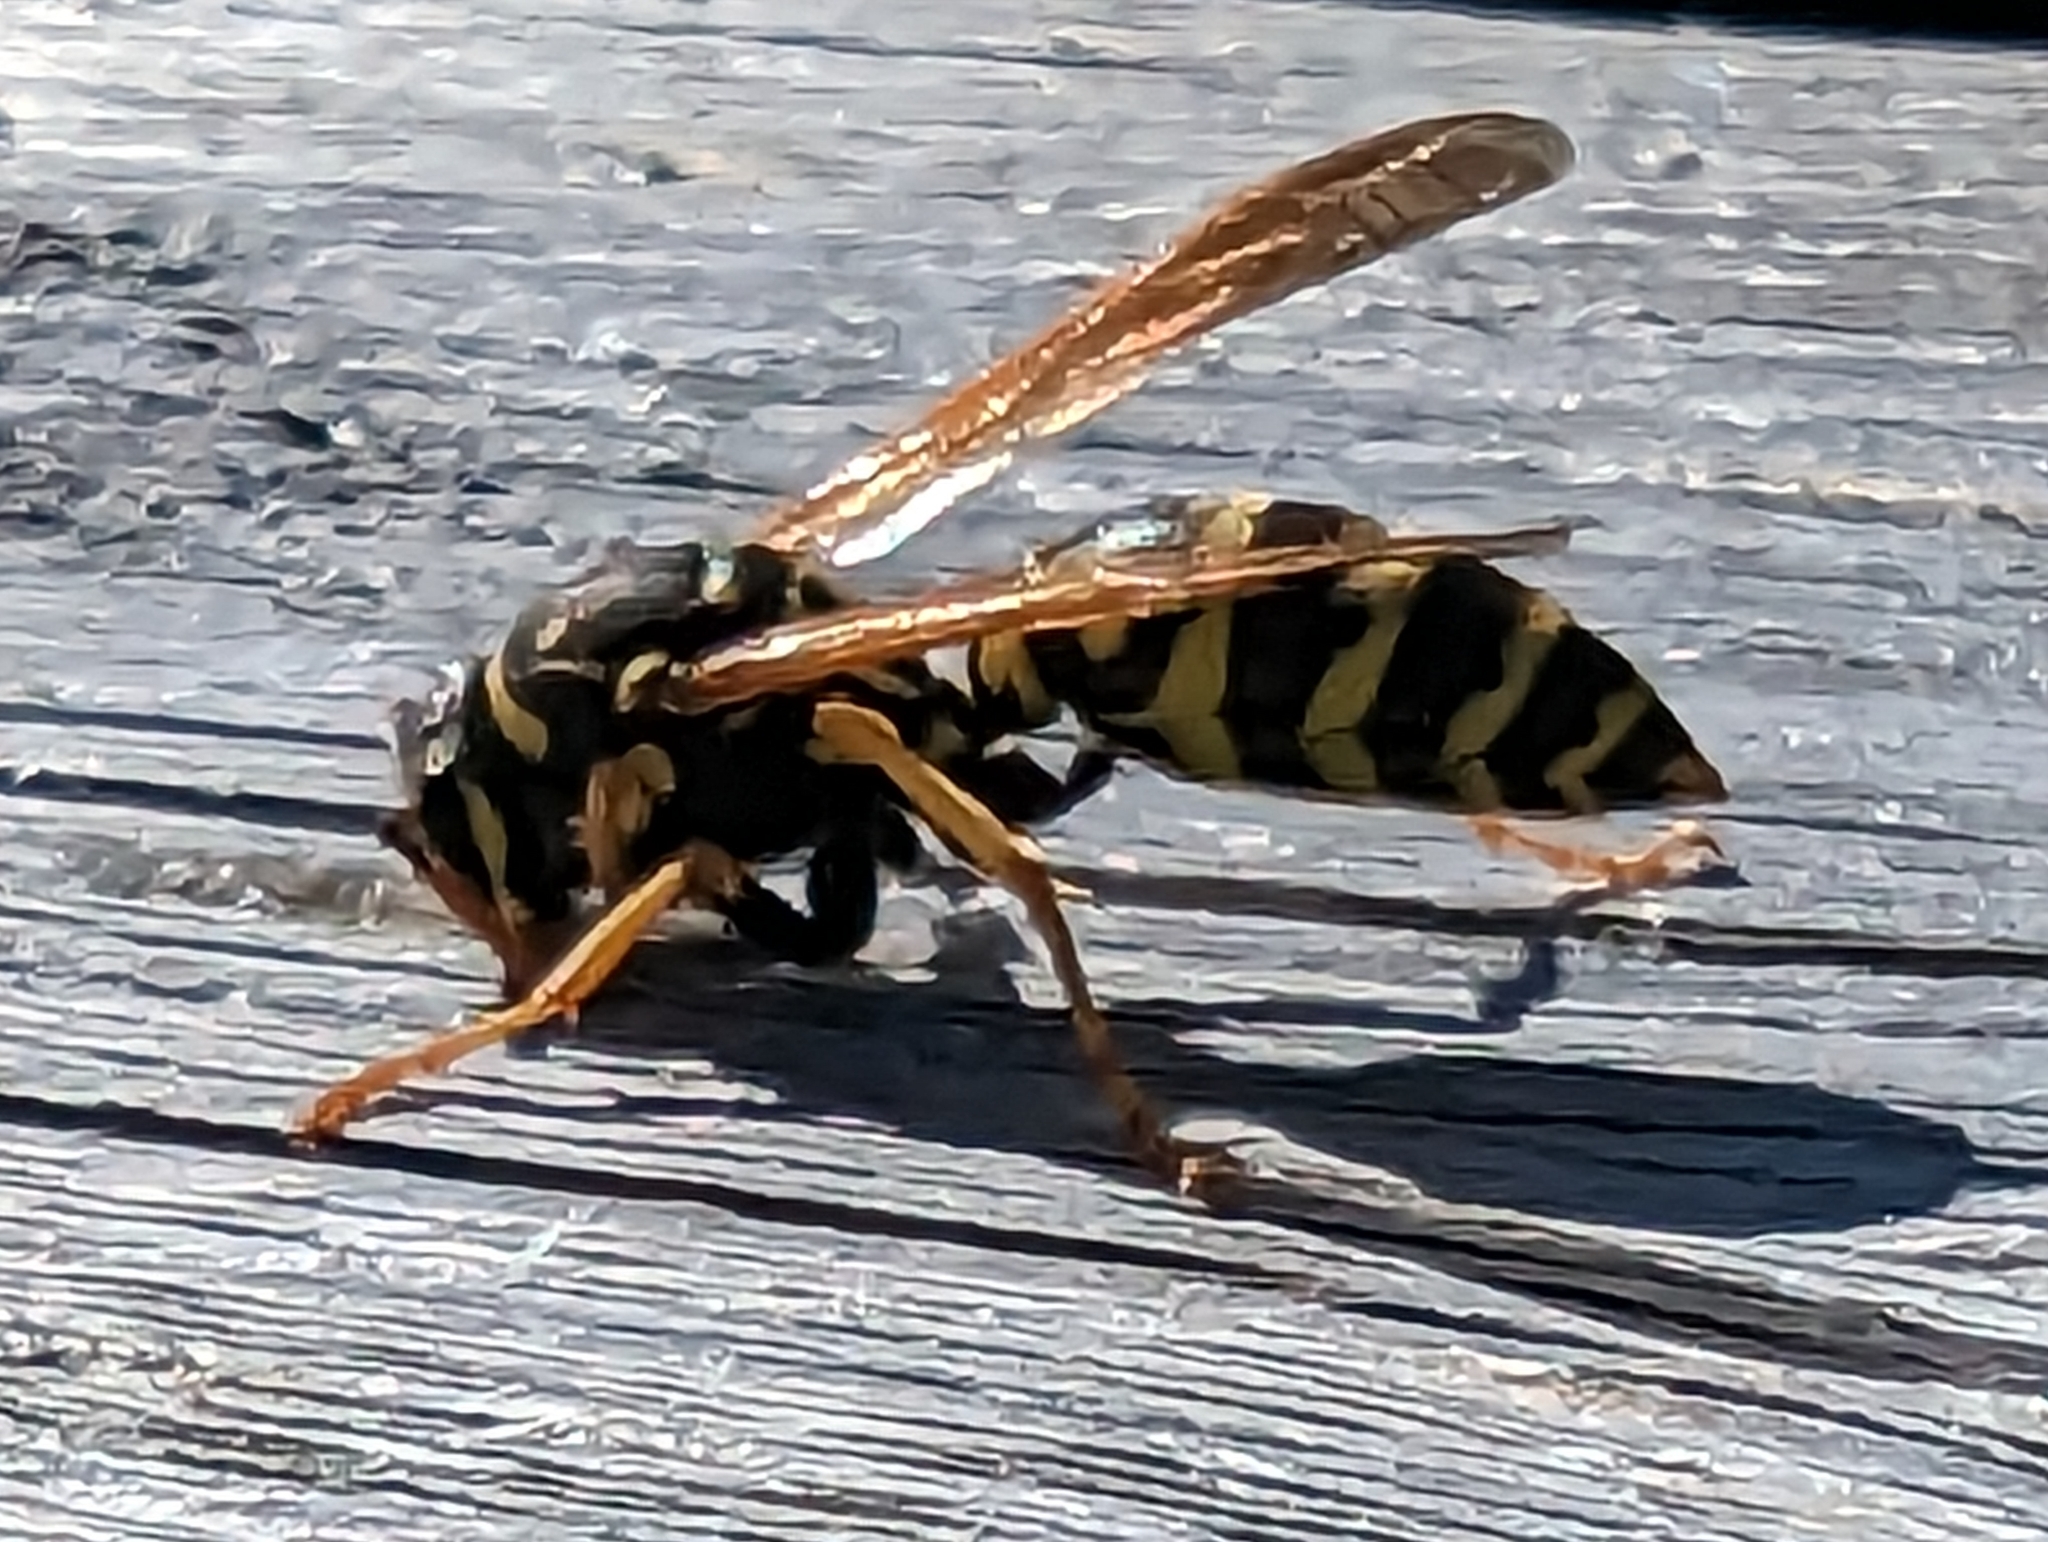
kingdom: Animalia
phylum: Arthropoda
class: Insecta
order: Hymenoptera
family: Eumenidae
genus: Polistes
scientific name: Polistes dominula
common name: Paper wasp
